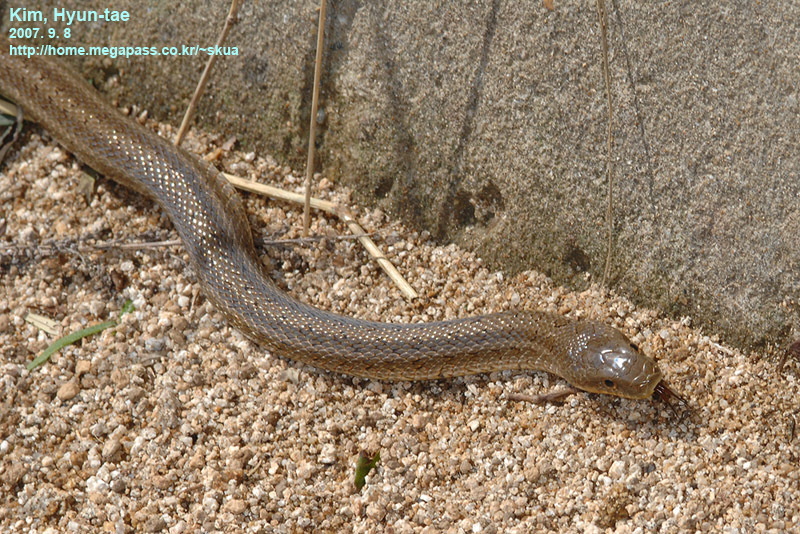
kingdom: Animalia
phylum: Chordata
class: Squamata
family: Colubridae
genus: Elaphe
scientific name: Elaphe dione
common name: Dione ratsnake
